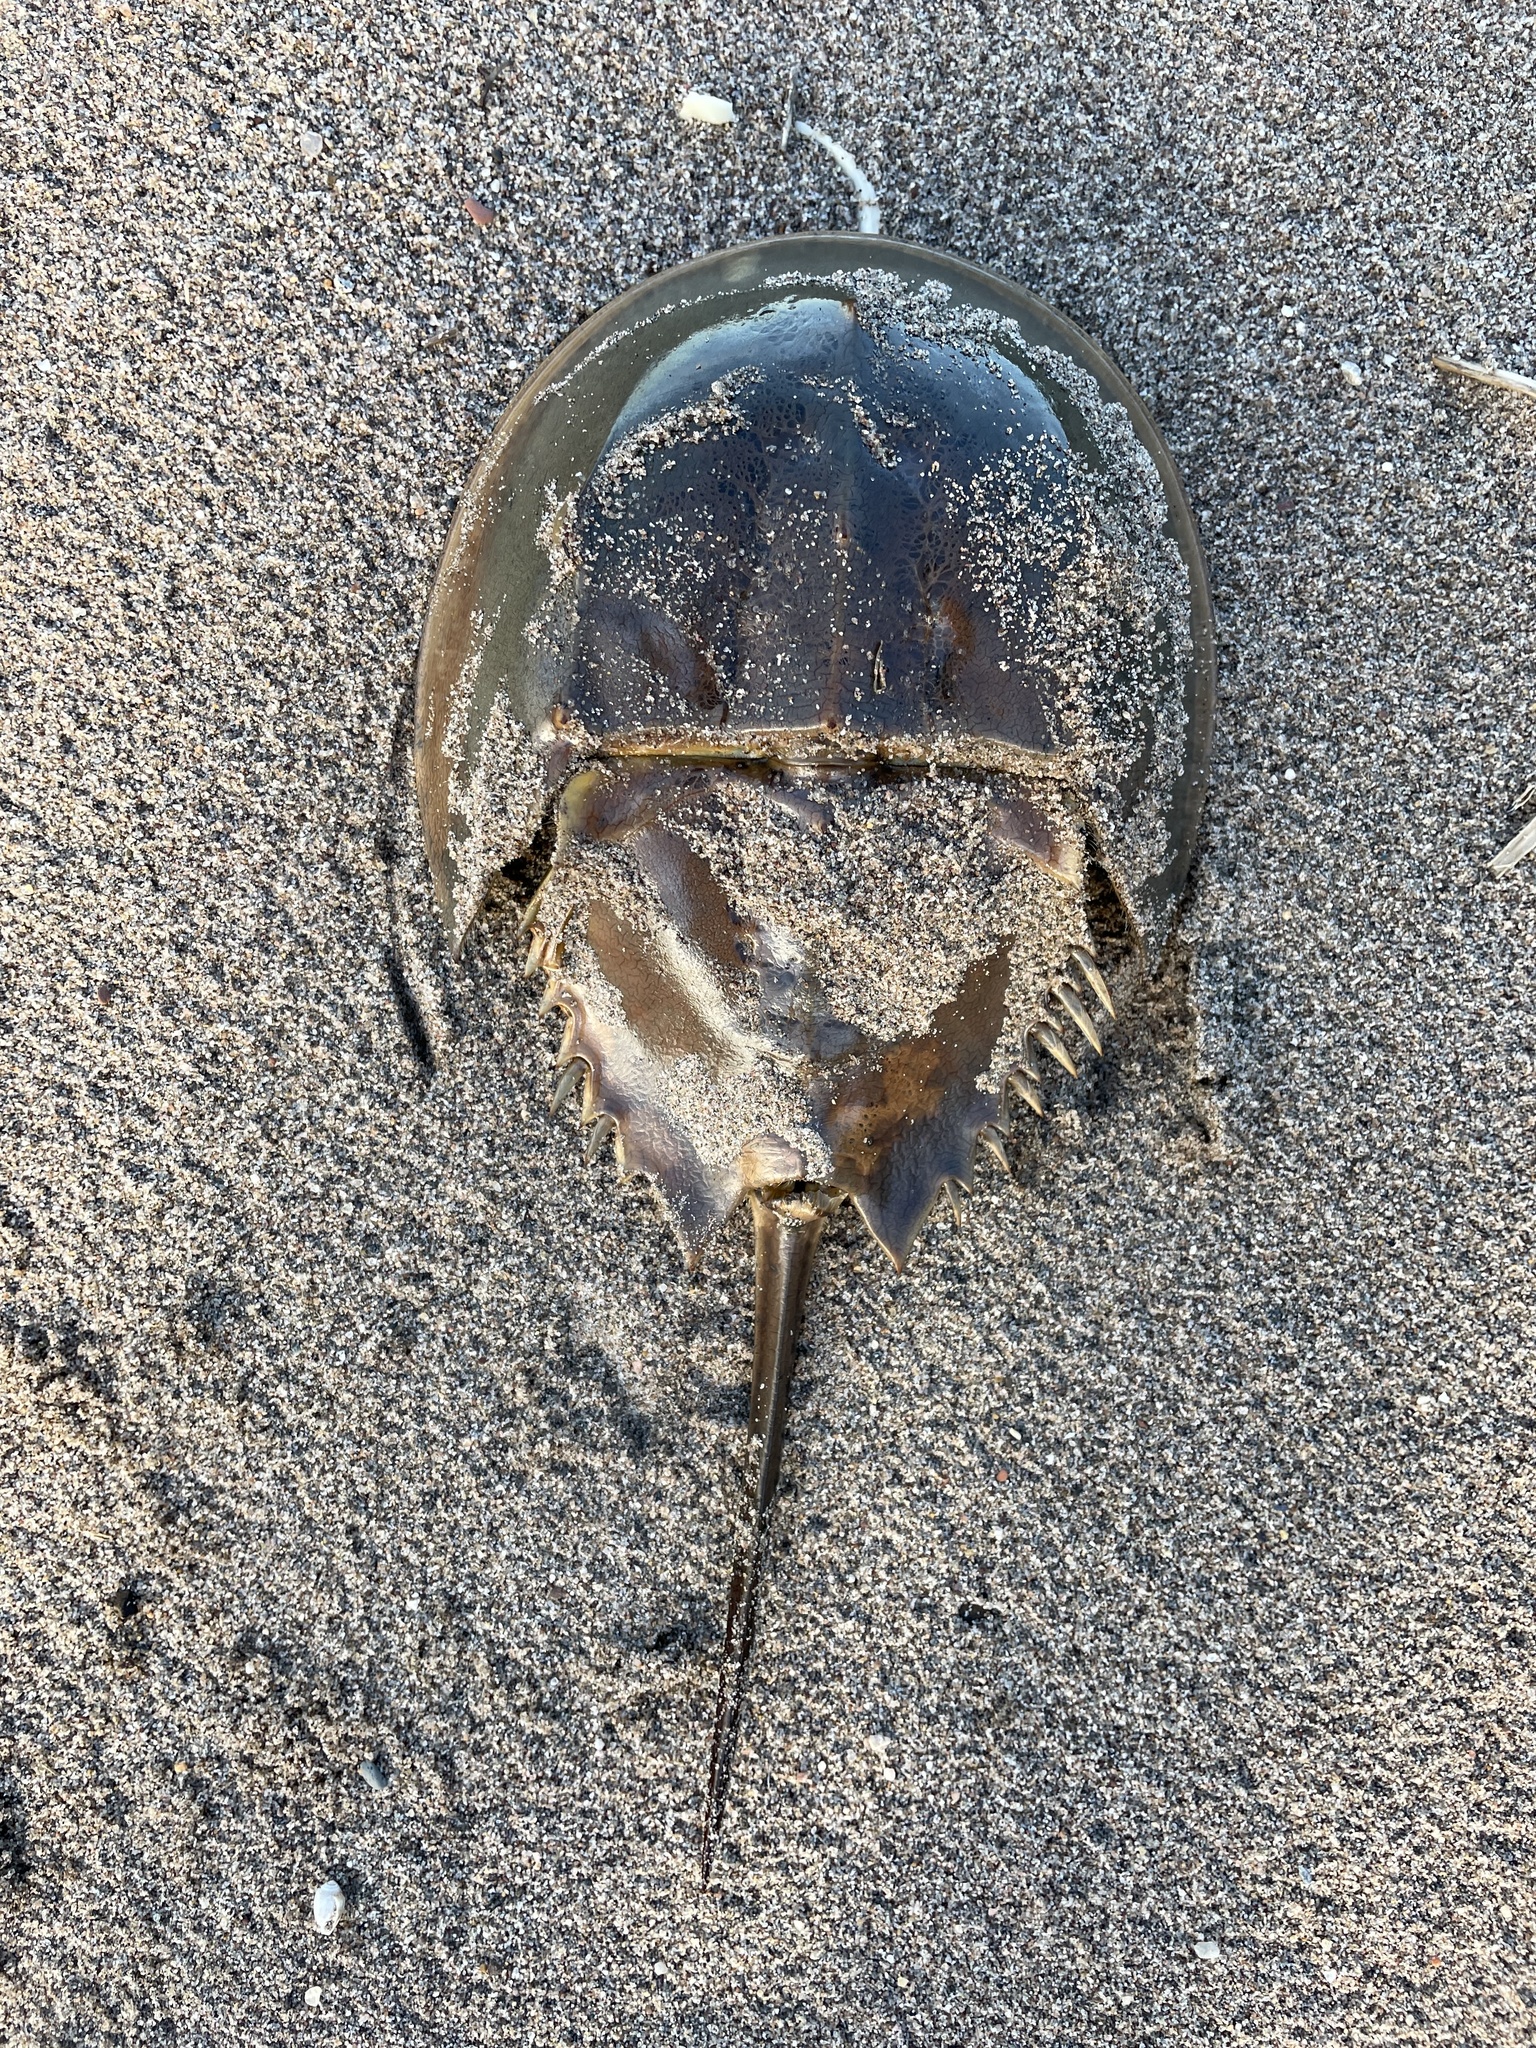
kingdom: Animalia
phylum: Arthropoda
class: Merostomata
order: Xiphosurida
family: Limulidae
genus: Limulus
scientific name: Limulus polyphemus
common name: Horseshoe crab
